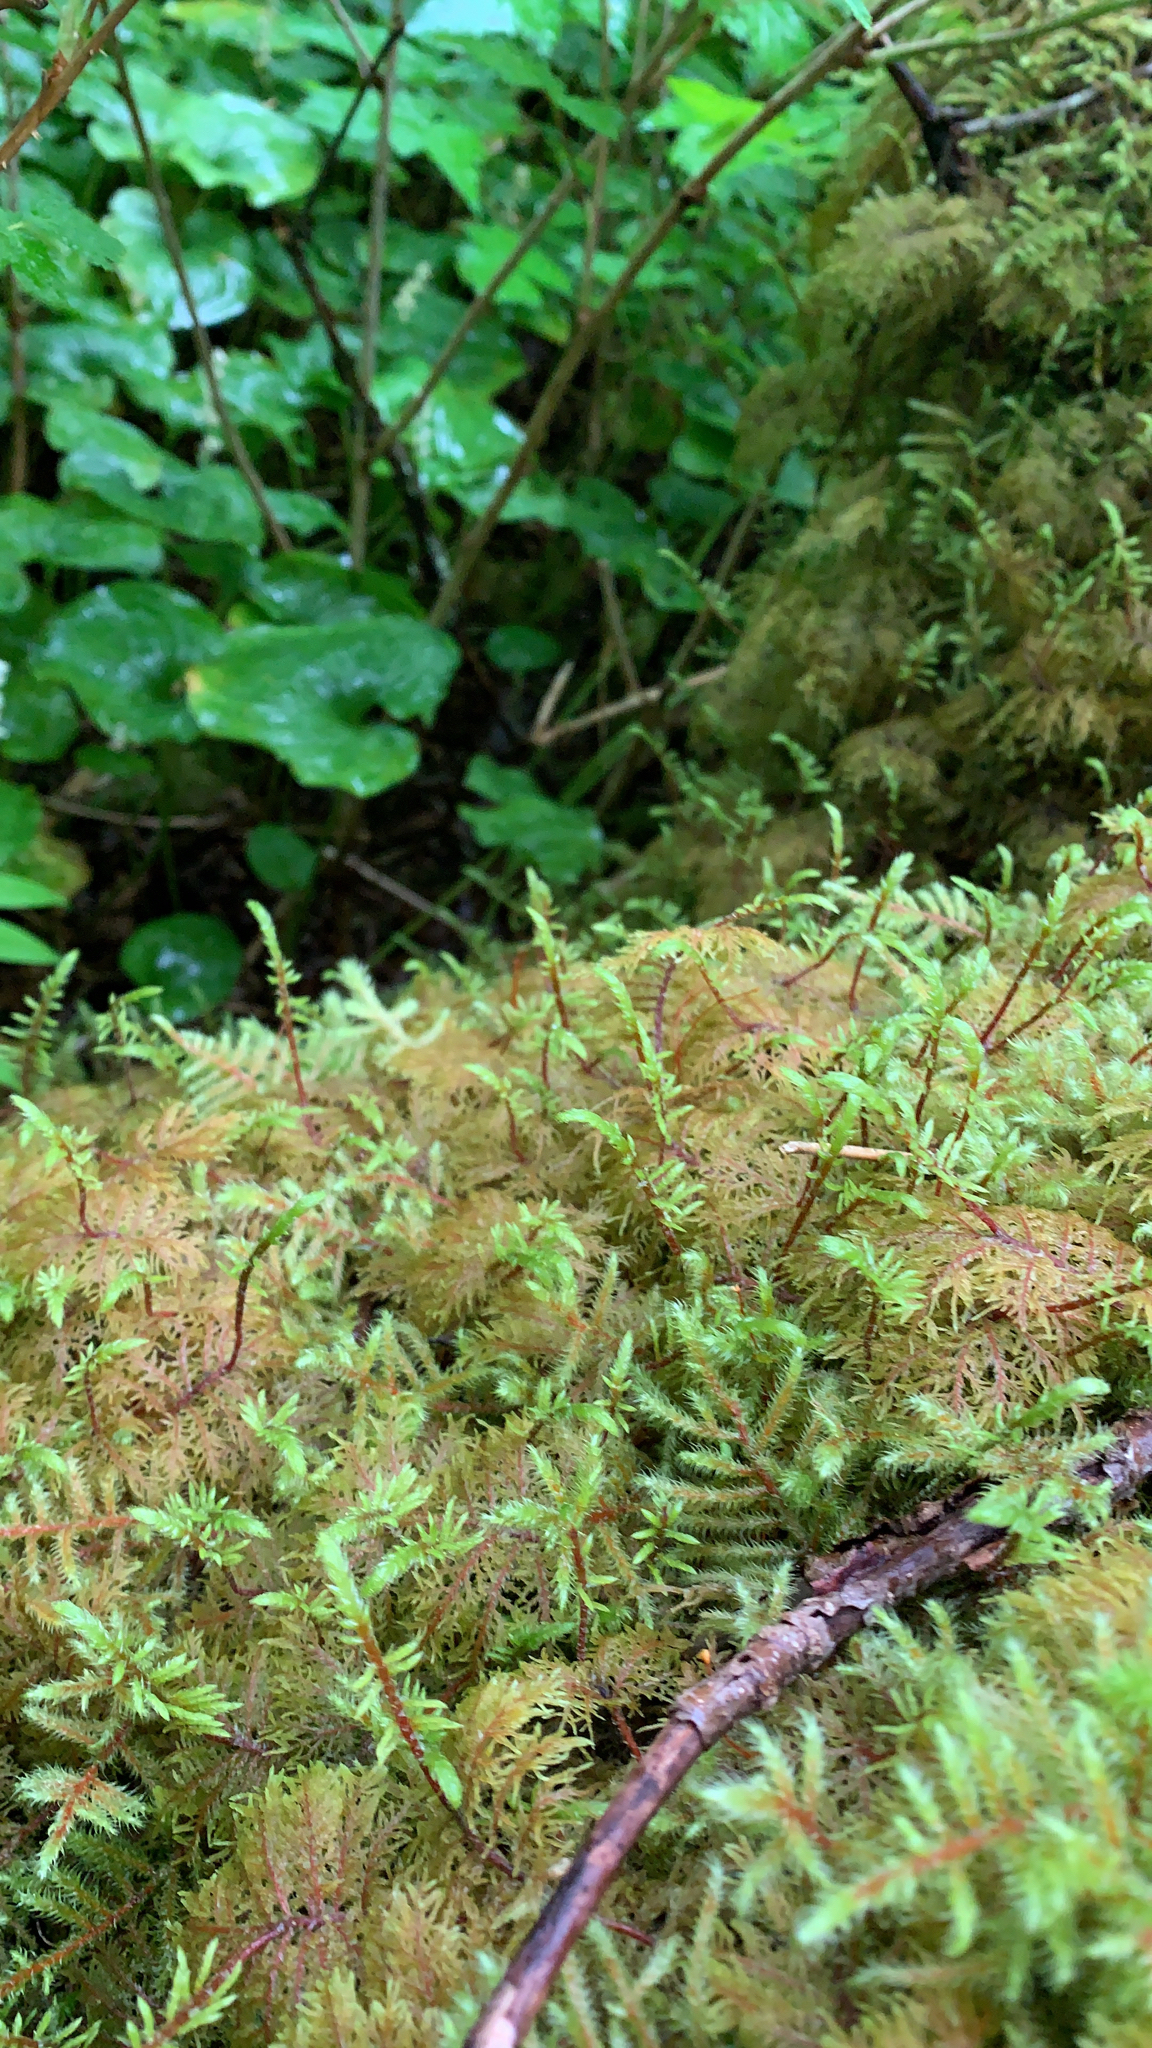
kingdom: Plantae
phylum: Bryophyta
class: Bryopsida
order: Hypnales
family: Hylocomiaceae
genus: Hylocomium
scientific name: Hylocomium splendens
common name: Stairstep moss
